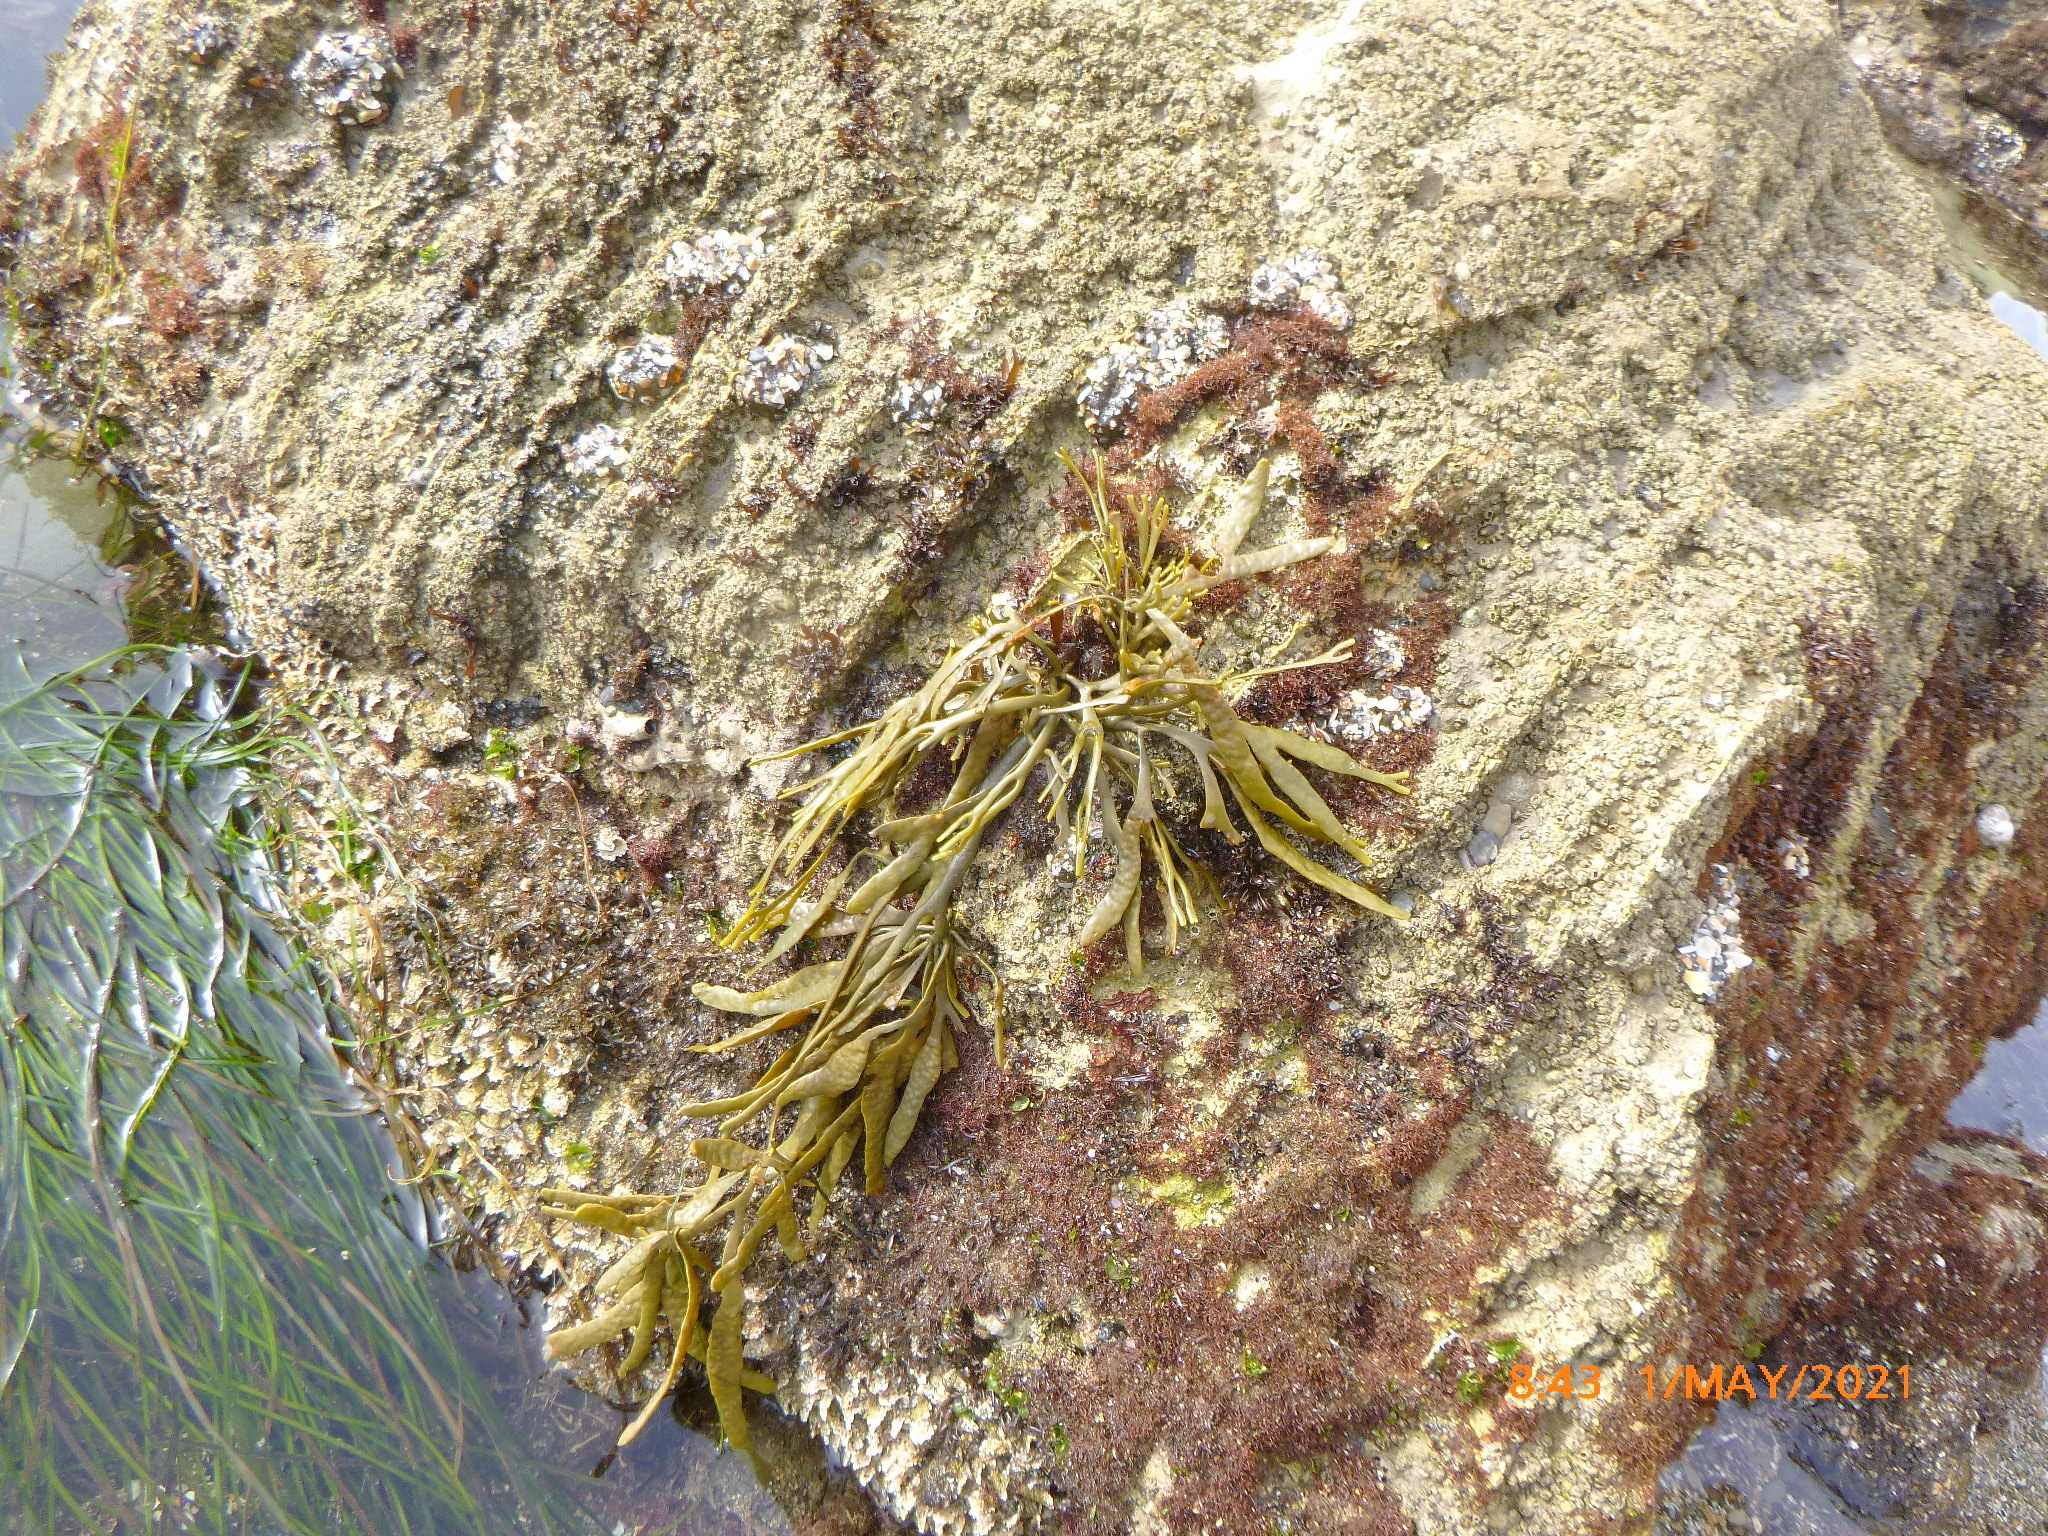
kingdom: Chromista
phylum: Ochrophyta
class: Phaeophyceae
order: Fucales
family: Fucaceae
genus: Silvetia
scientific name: Silvetia
